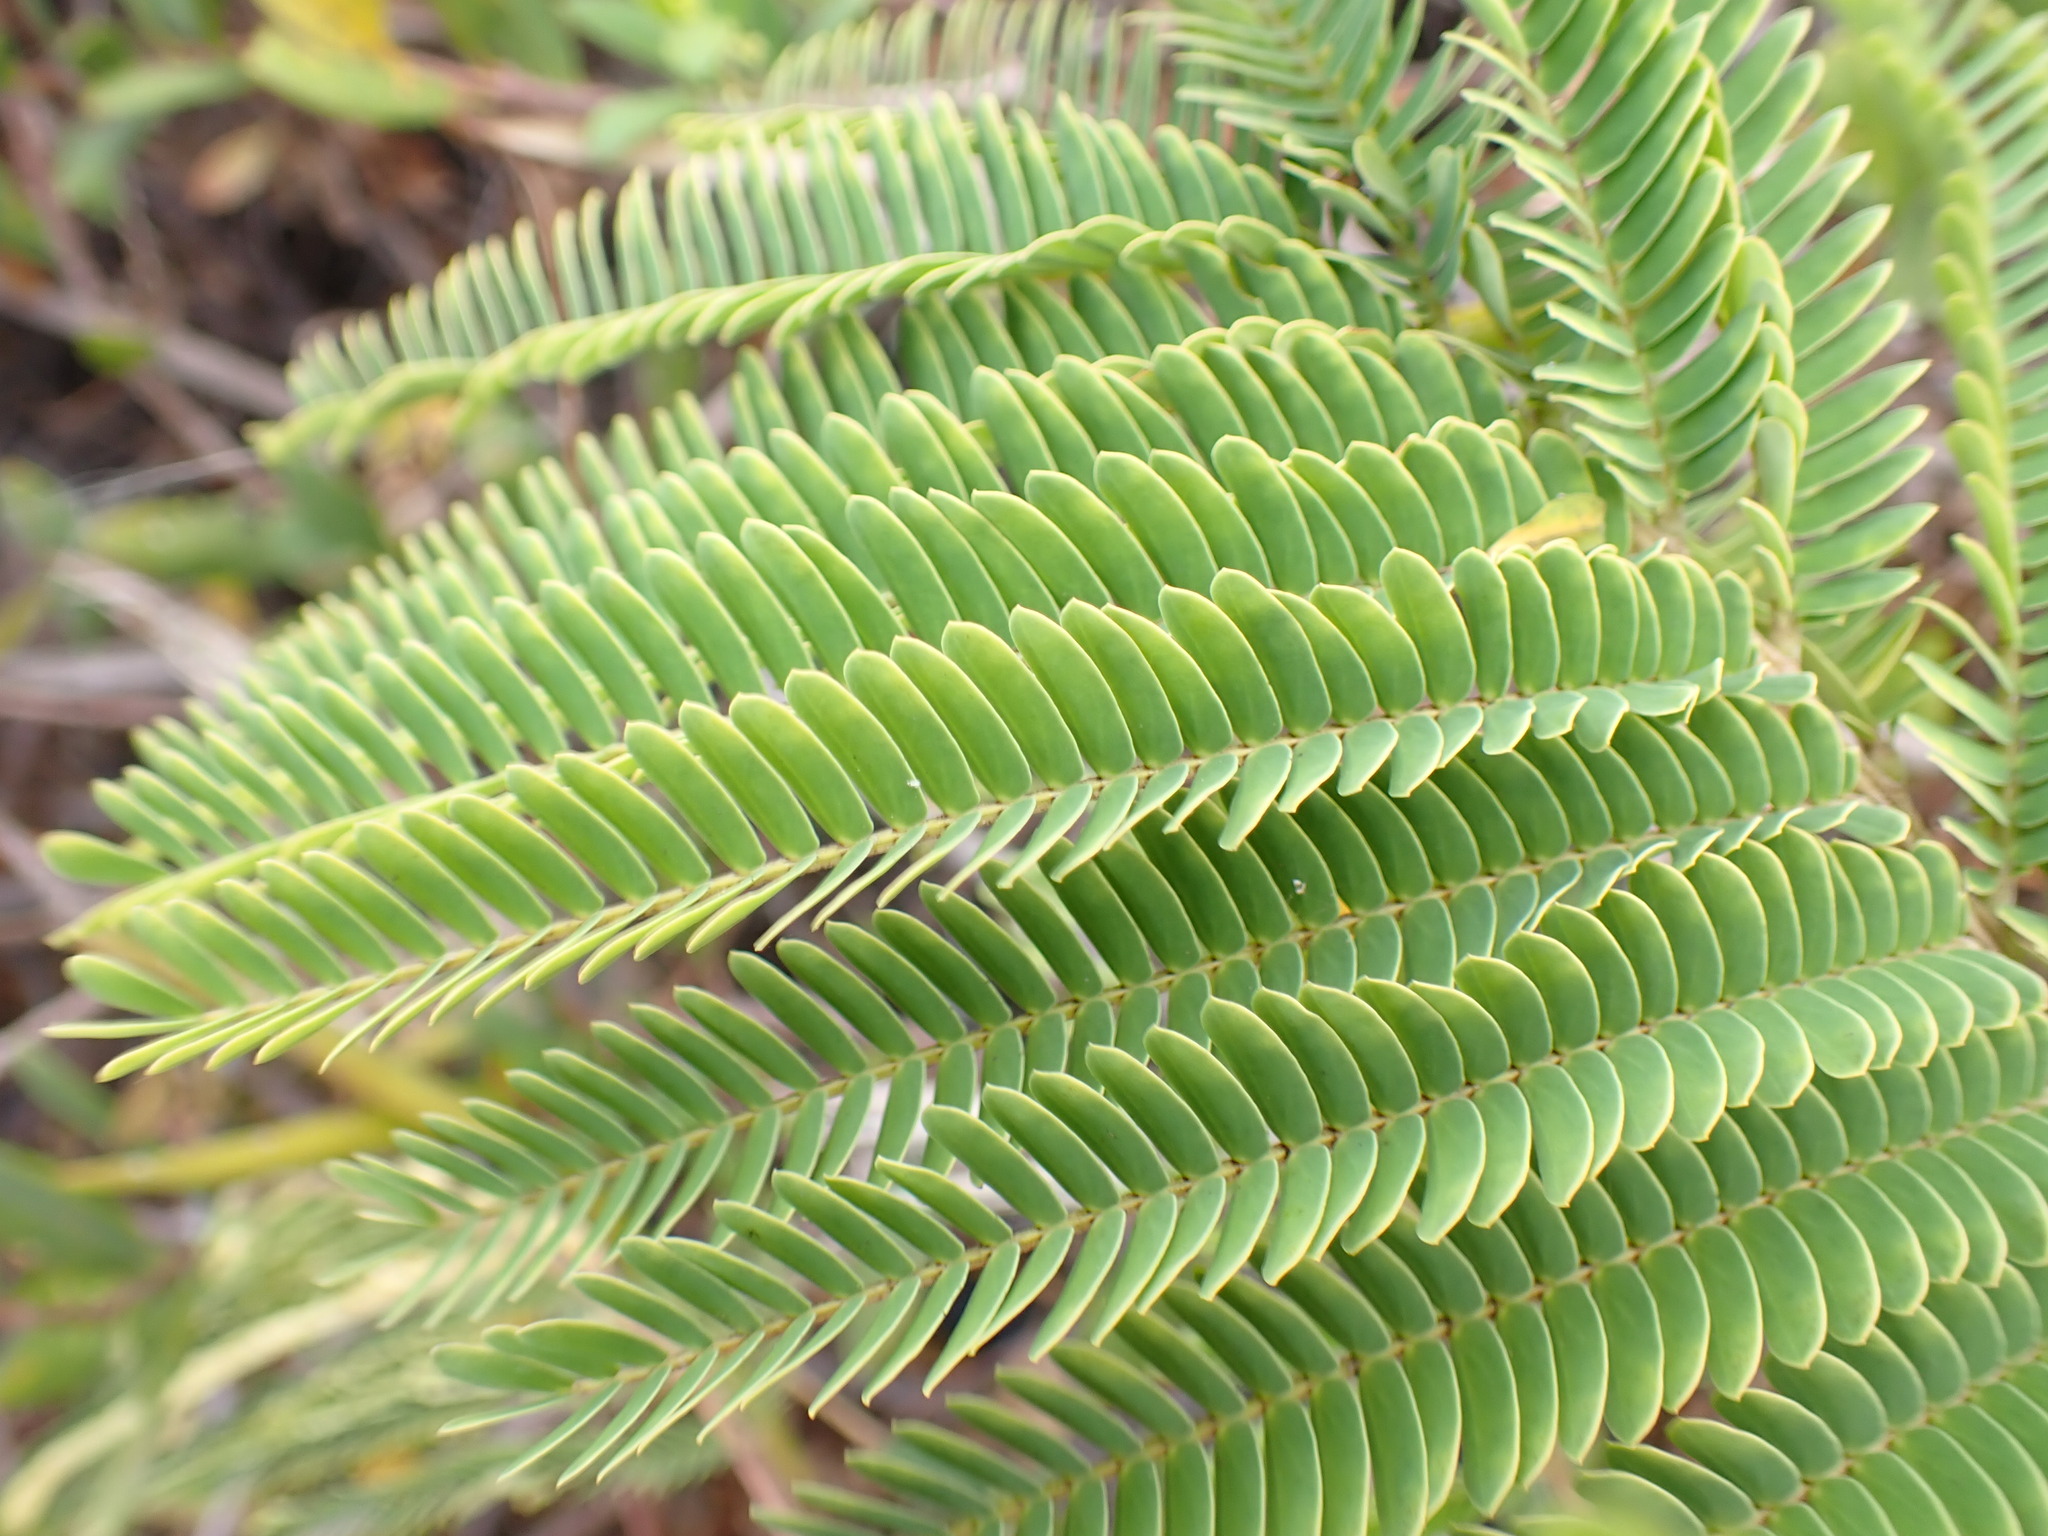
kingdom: Plantae
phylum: Tracheophyta
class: Magnoliopsida
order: Fabales
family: Fabaceae
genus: Paraserianthes
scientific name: Paraserianthes lophantha
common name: Plume albizia
